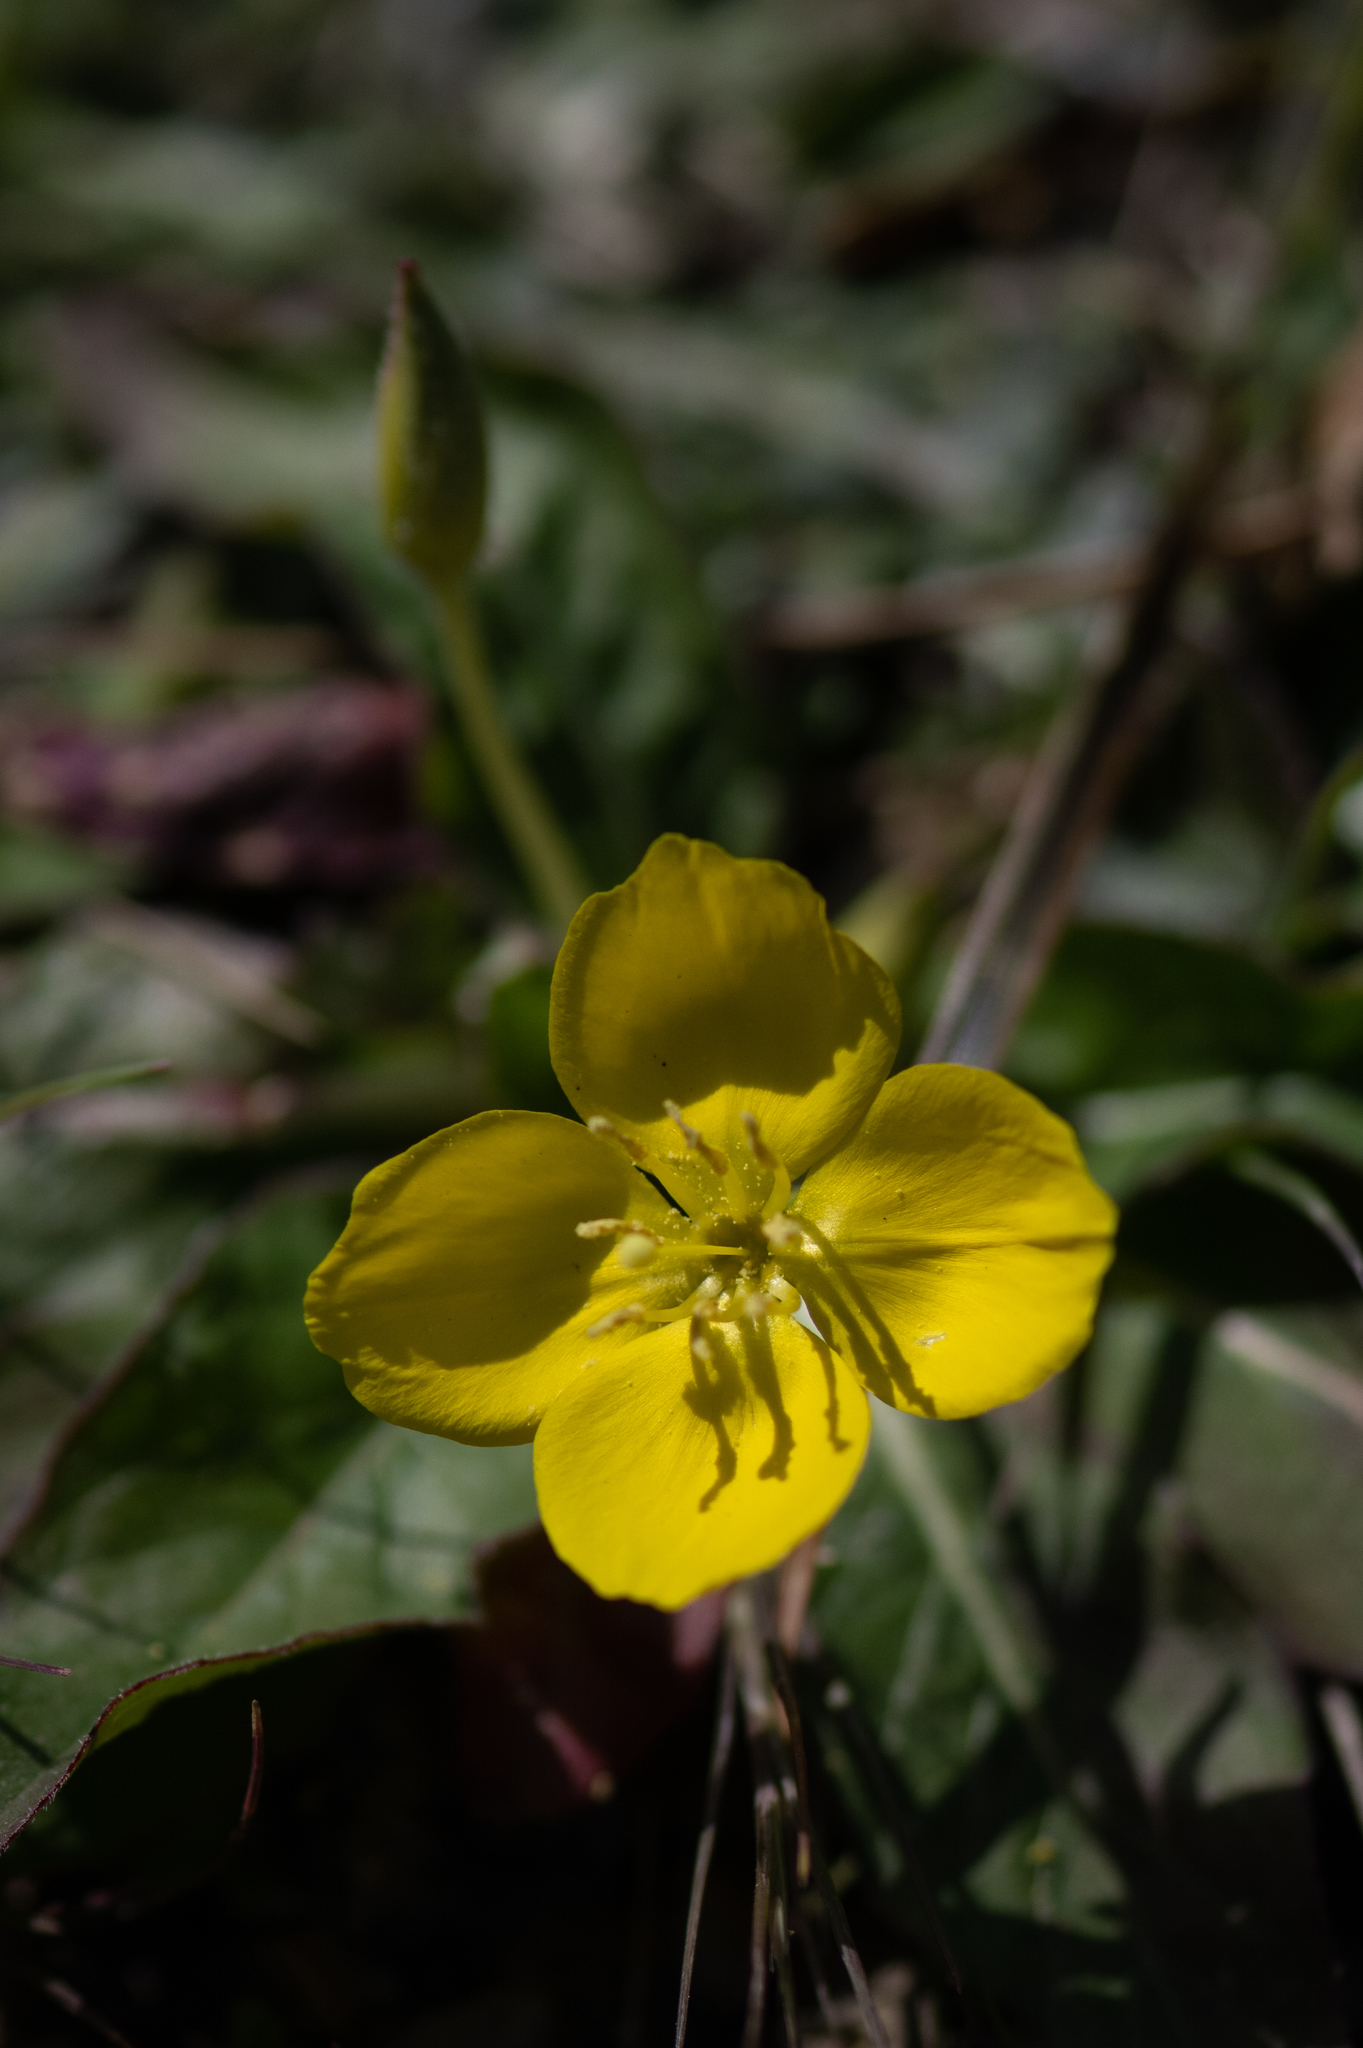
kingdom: Plantae
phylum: Tracheophyta
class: Magnoliopsida
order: Myrtales
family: Onagraceae
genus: Taraxia
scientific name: Taraxia ovata
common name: Goldeneggs
